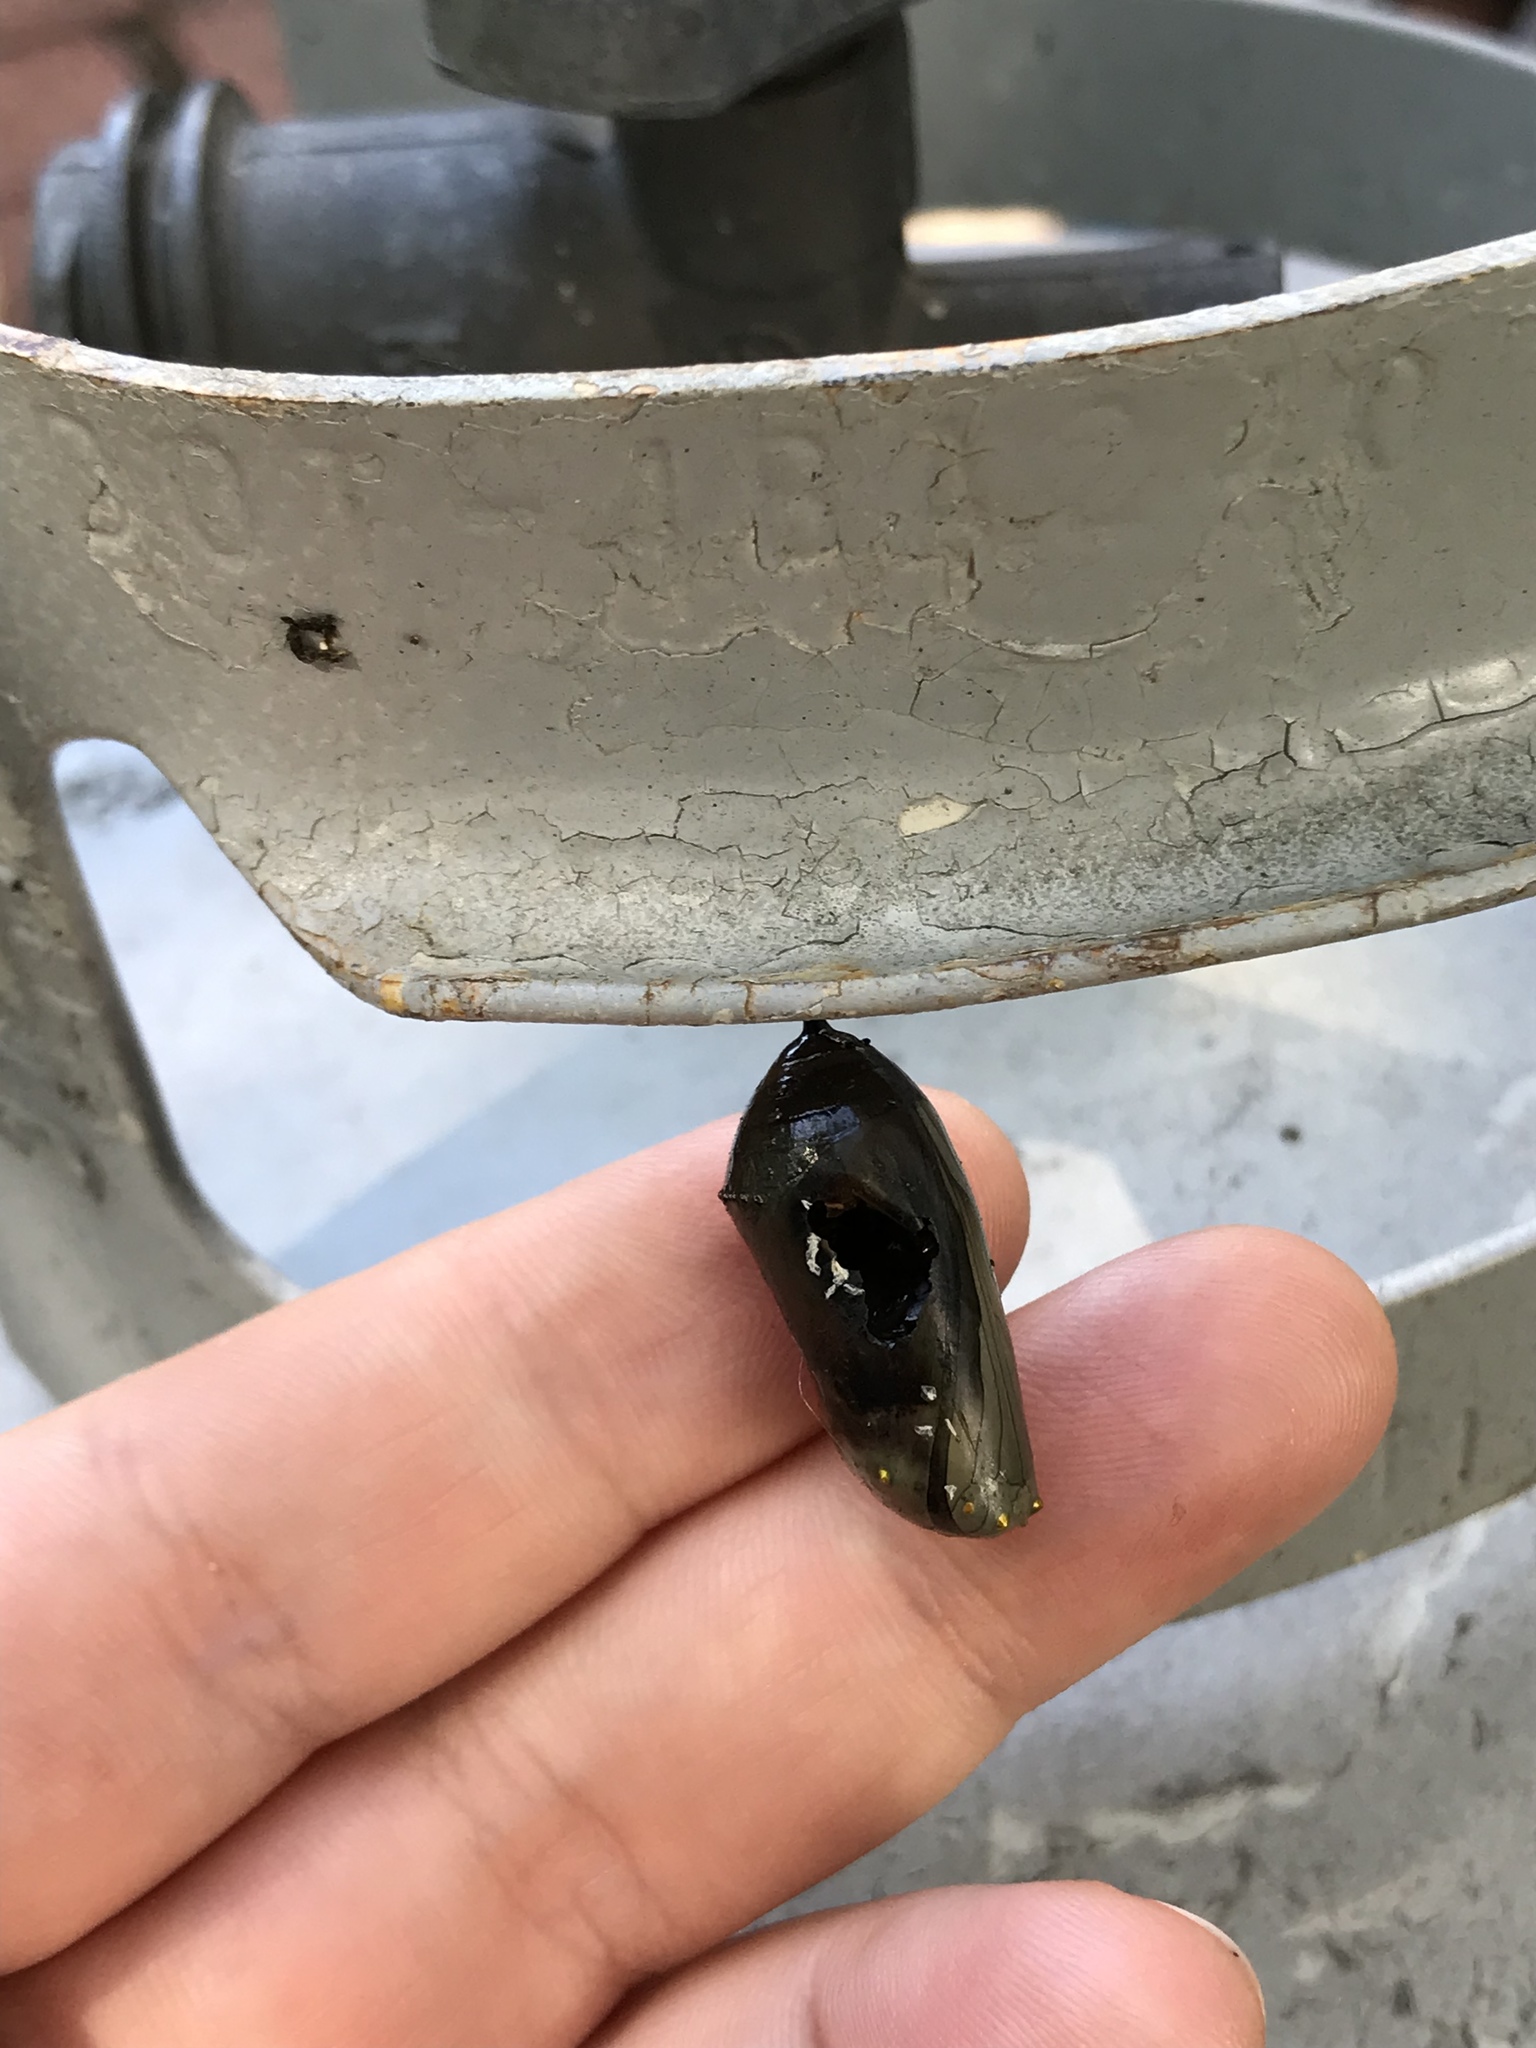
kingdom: Animalia
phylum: Arthropoda
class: Insecta
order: Lepidoptera
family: Nymphalidae
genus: Danaus
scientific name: Danaus plexippus
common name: Monarch
